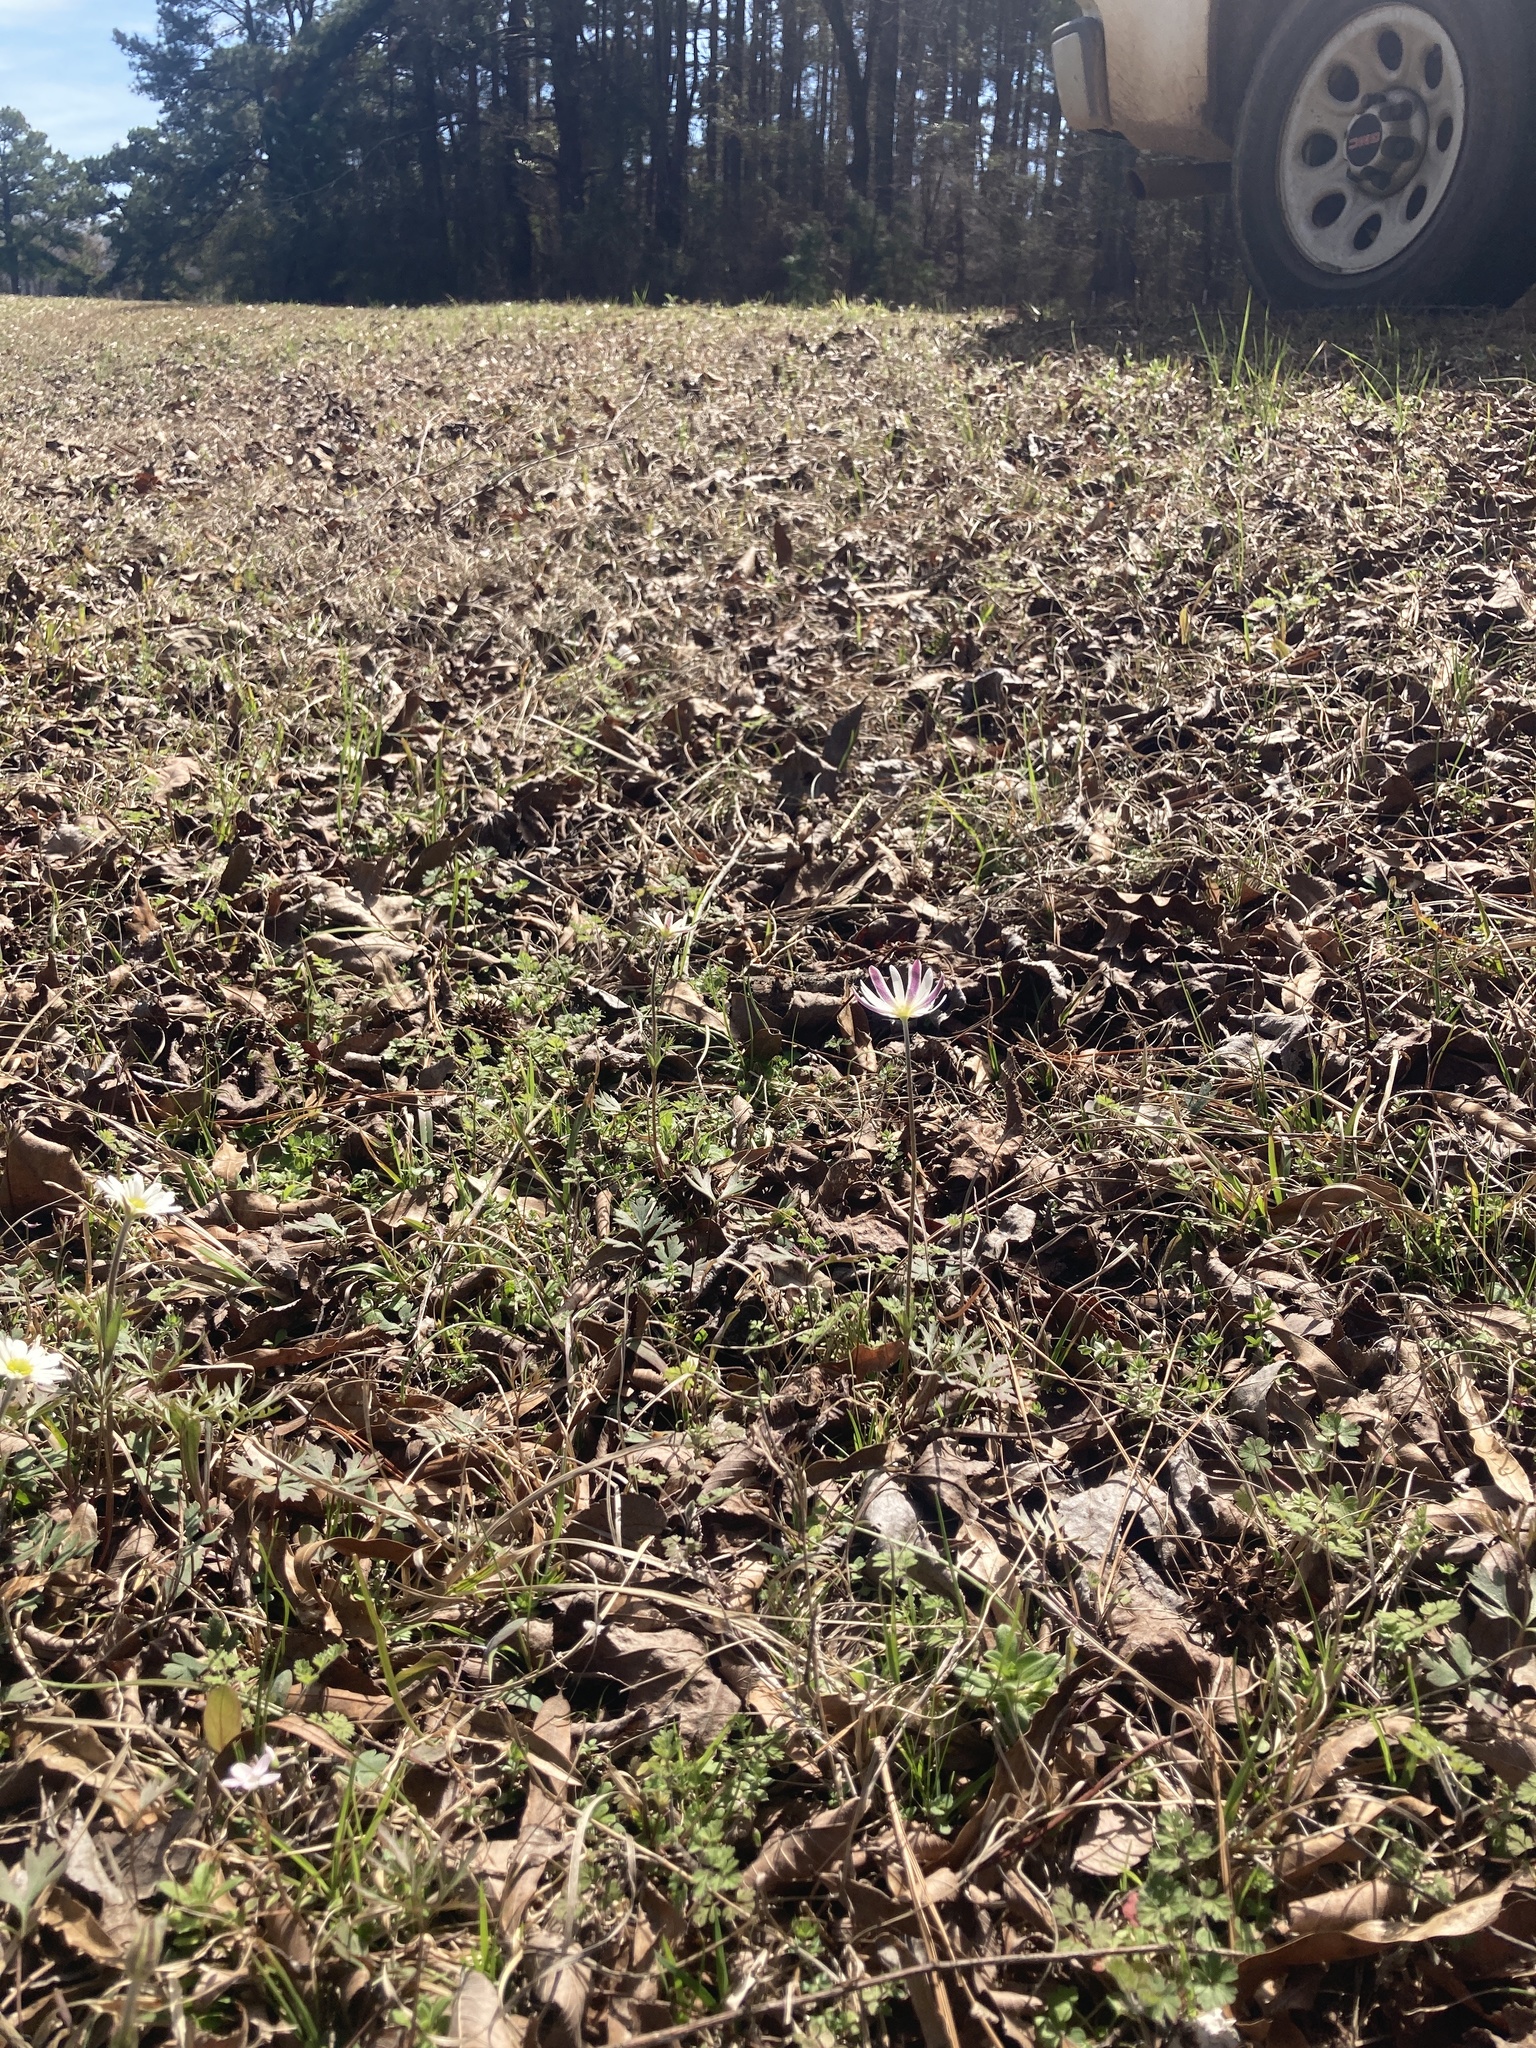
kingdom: Plantae
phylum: Tracheophyta
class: Magnoliopsida
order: Ranunculales
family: Ranunculaceae
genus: Anemone
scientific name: Anemone caroliniana
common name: Carolina anemone
